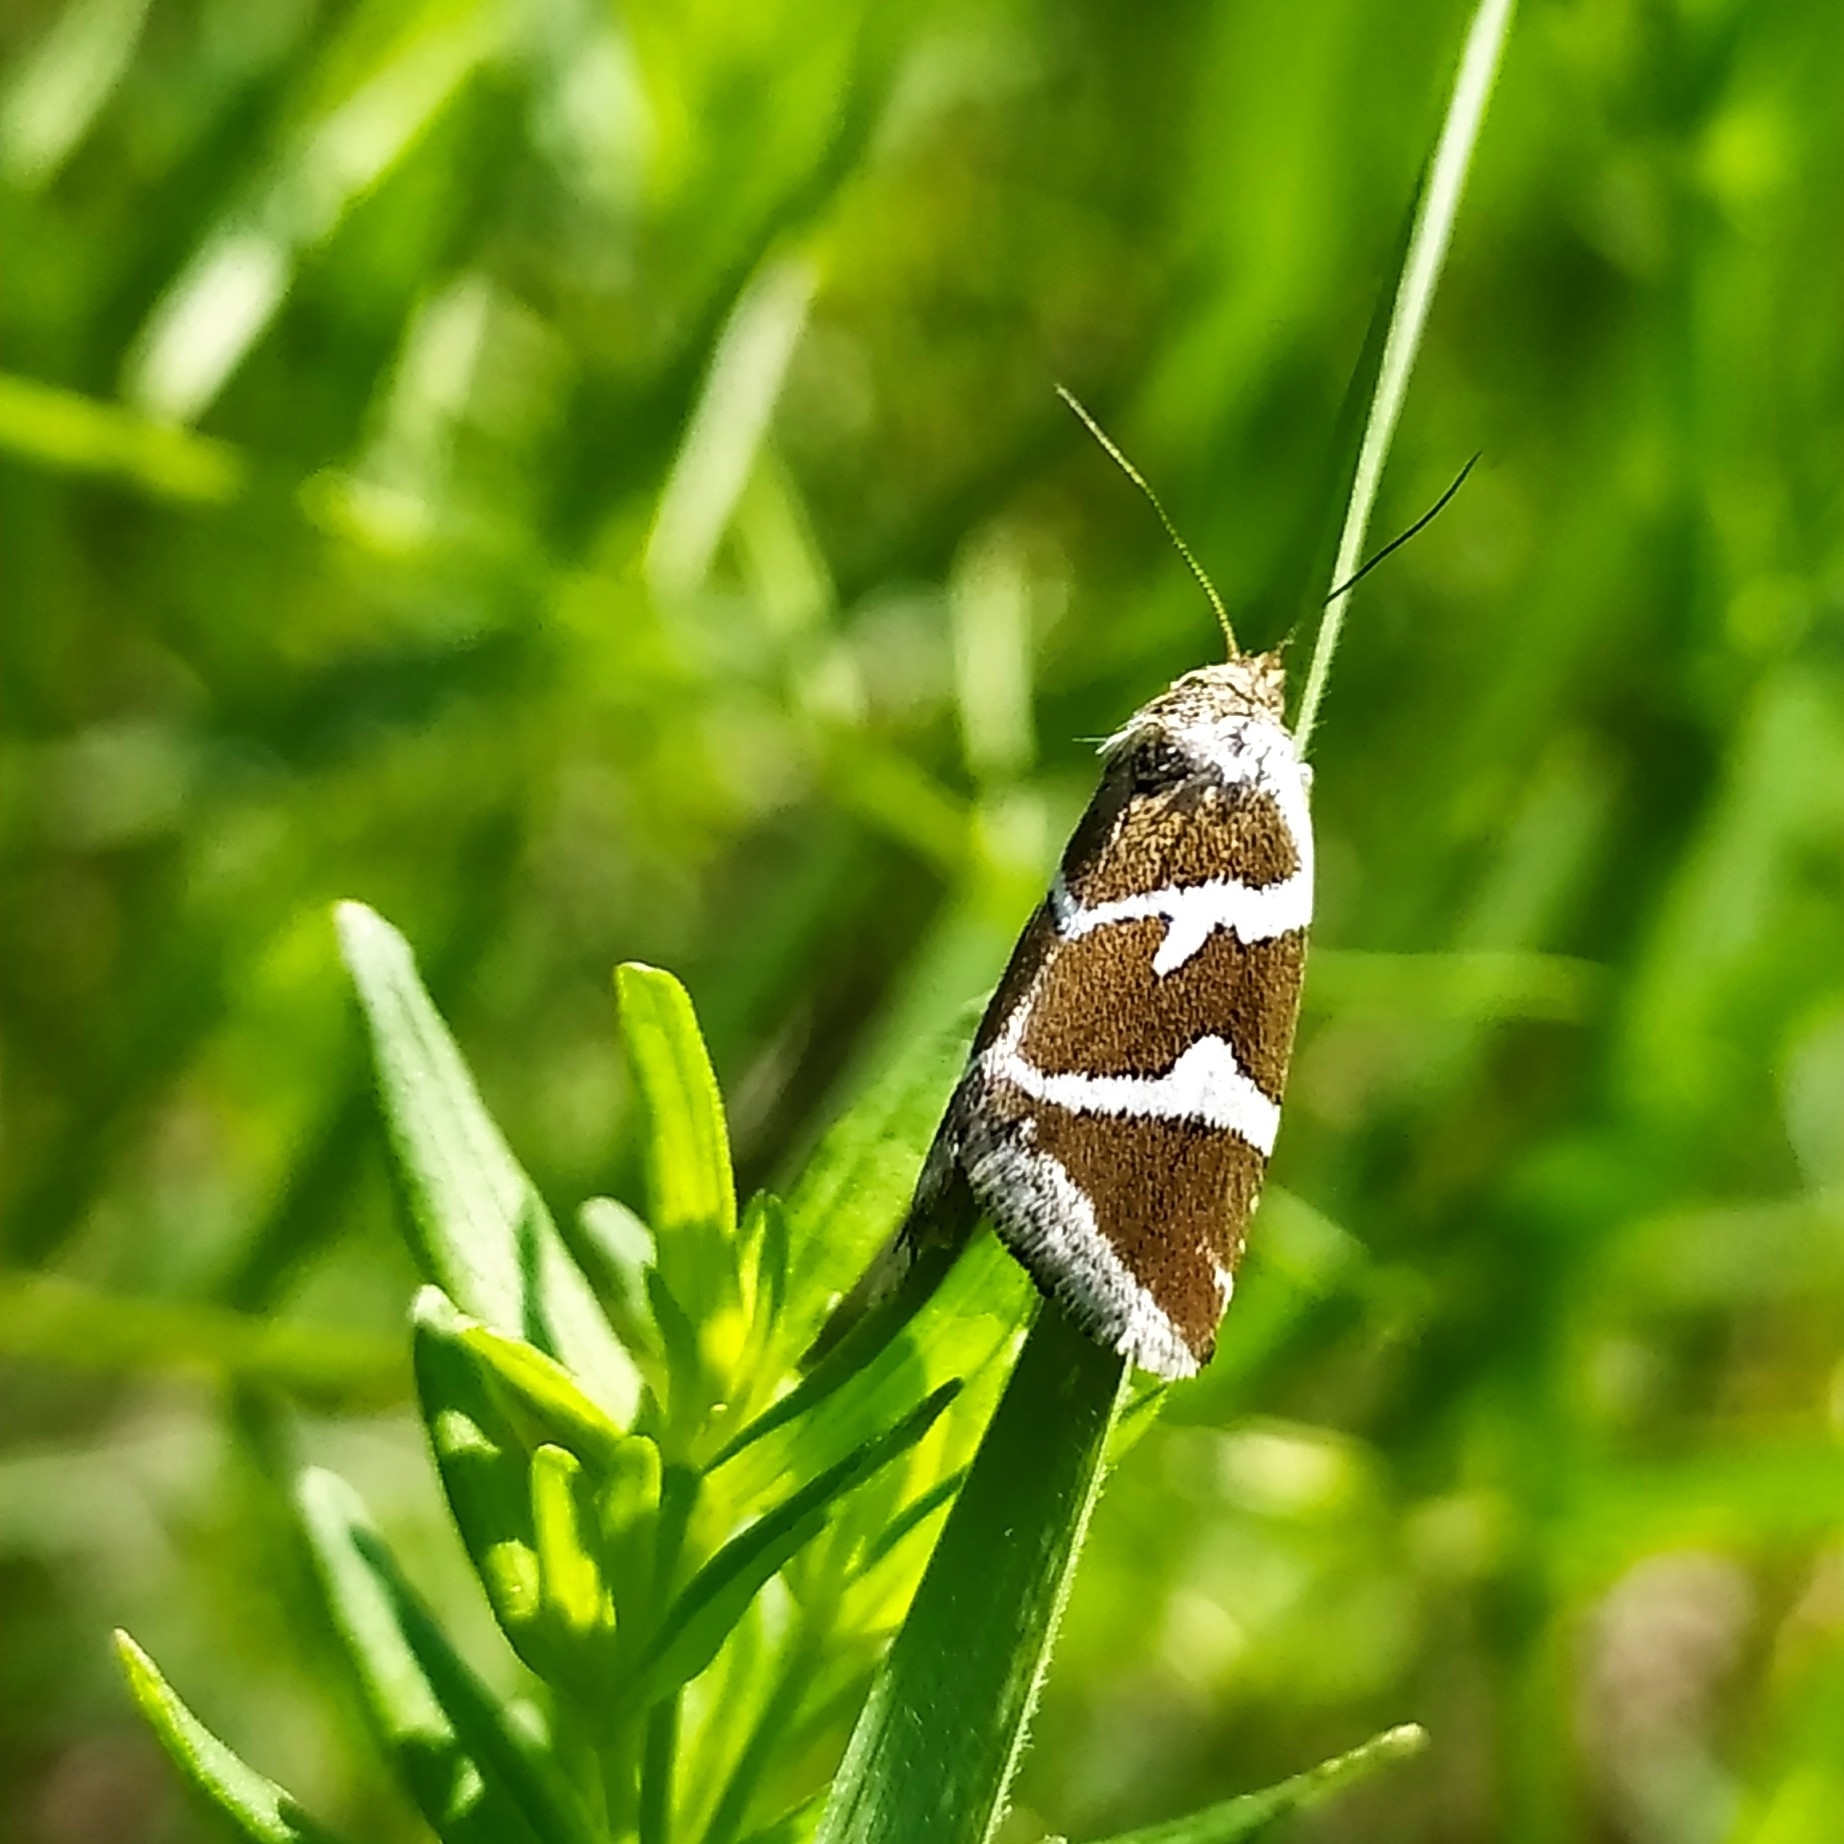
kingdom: Animalia
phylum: Arthropoda
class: Insecta
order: Lepidoptera
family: Noctuidae
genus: Deltote
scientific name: Deltote bankiana
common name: Silver barred
